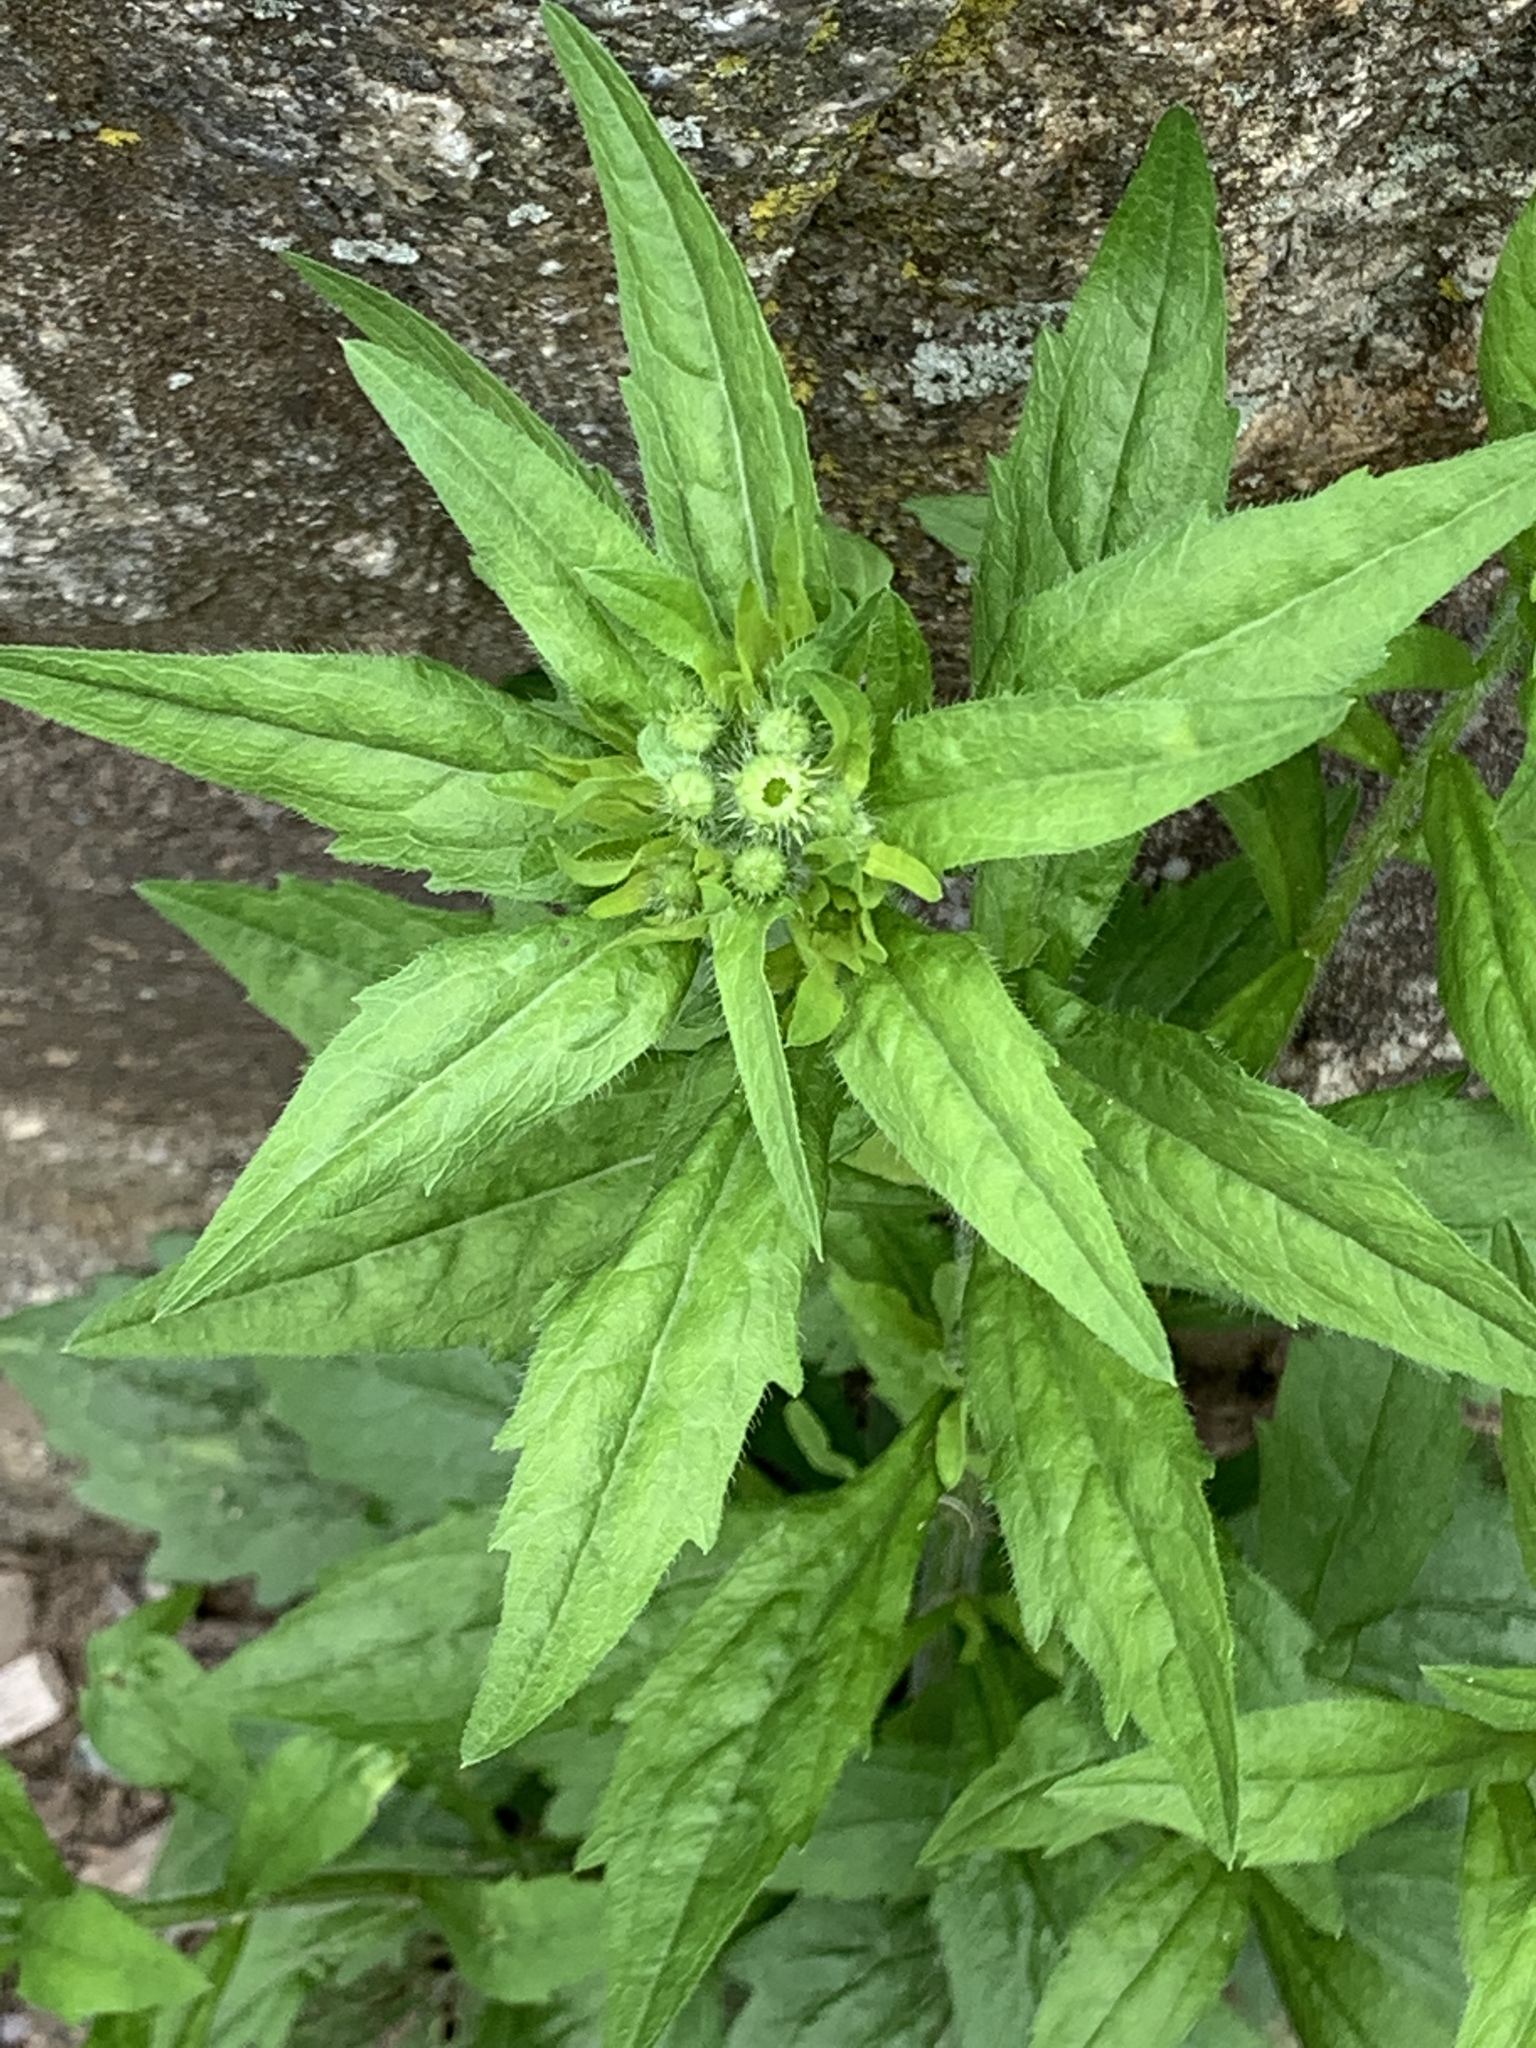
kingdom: Plantae
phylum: Tracheophyta
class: Magnoliopsida
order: Asterales
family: Asteraceae
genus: Erigeron
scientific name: Erigeron annuus
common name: Tall fleabane
